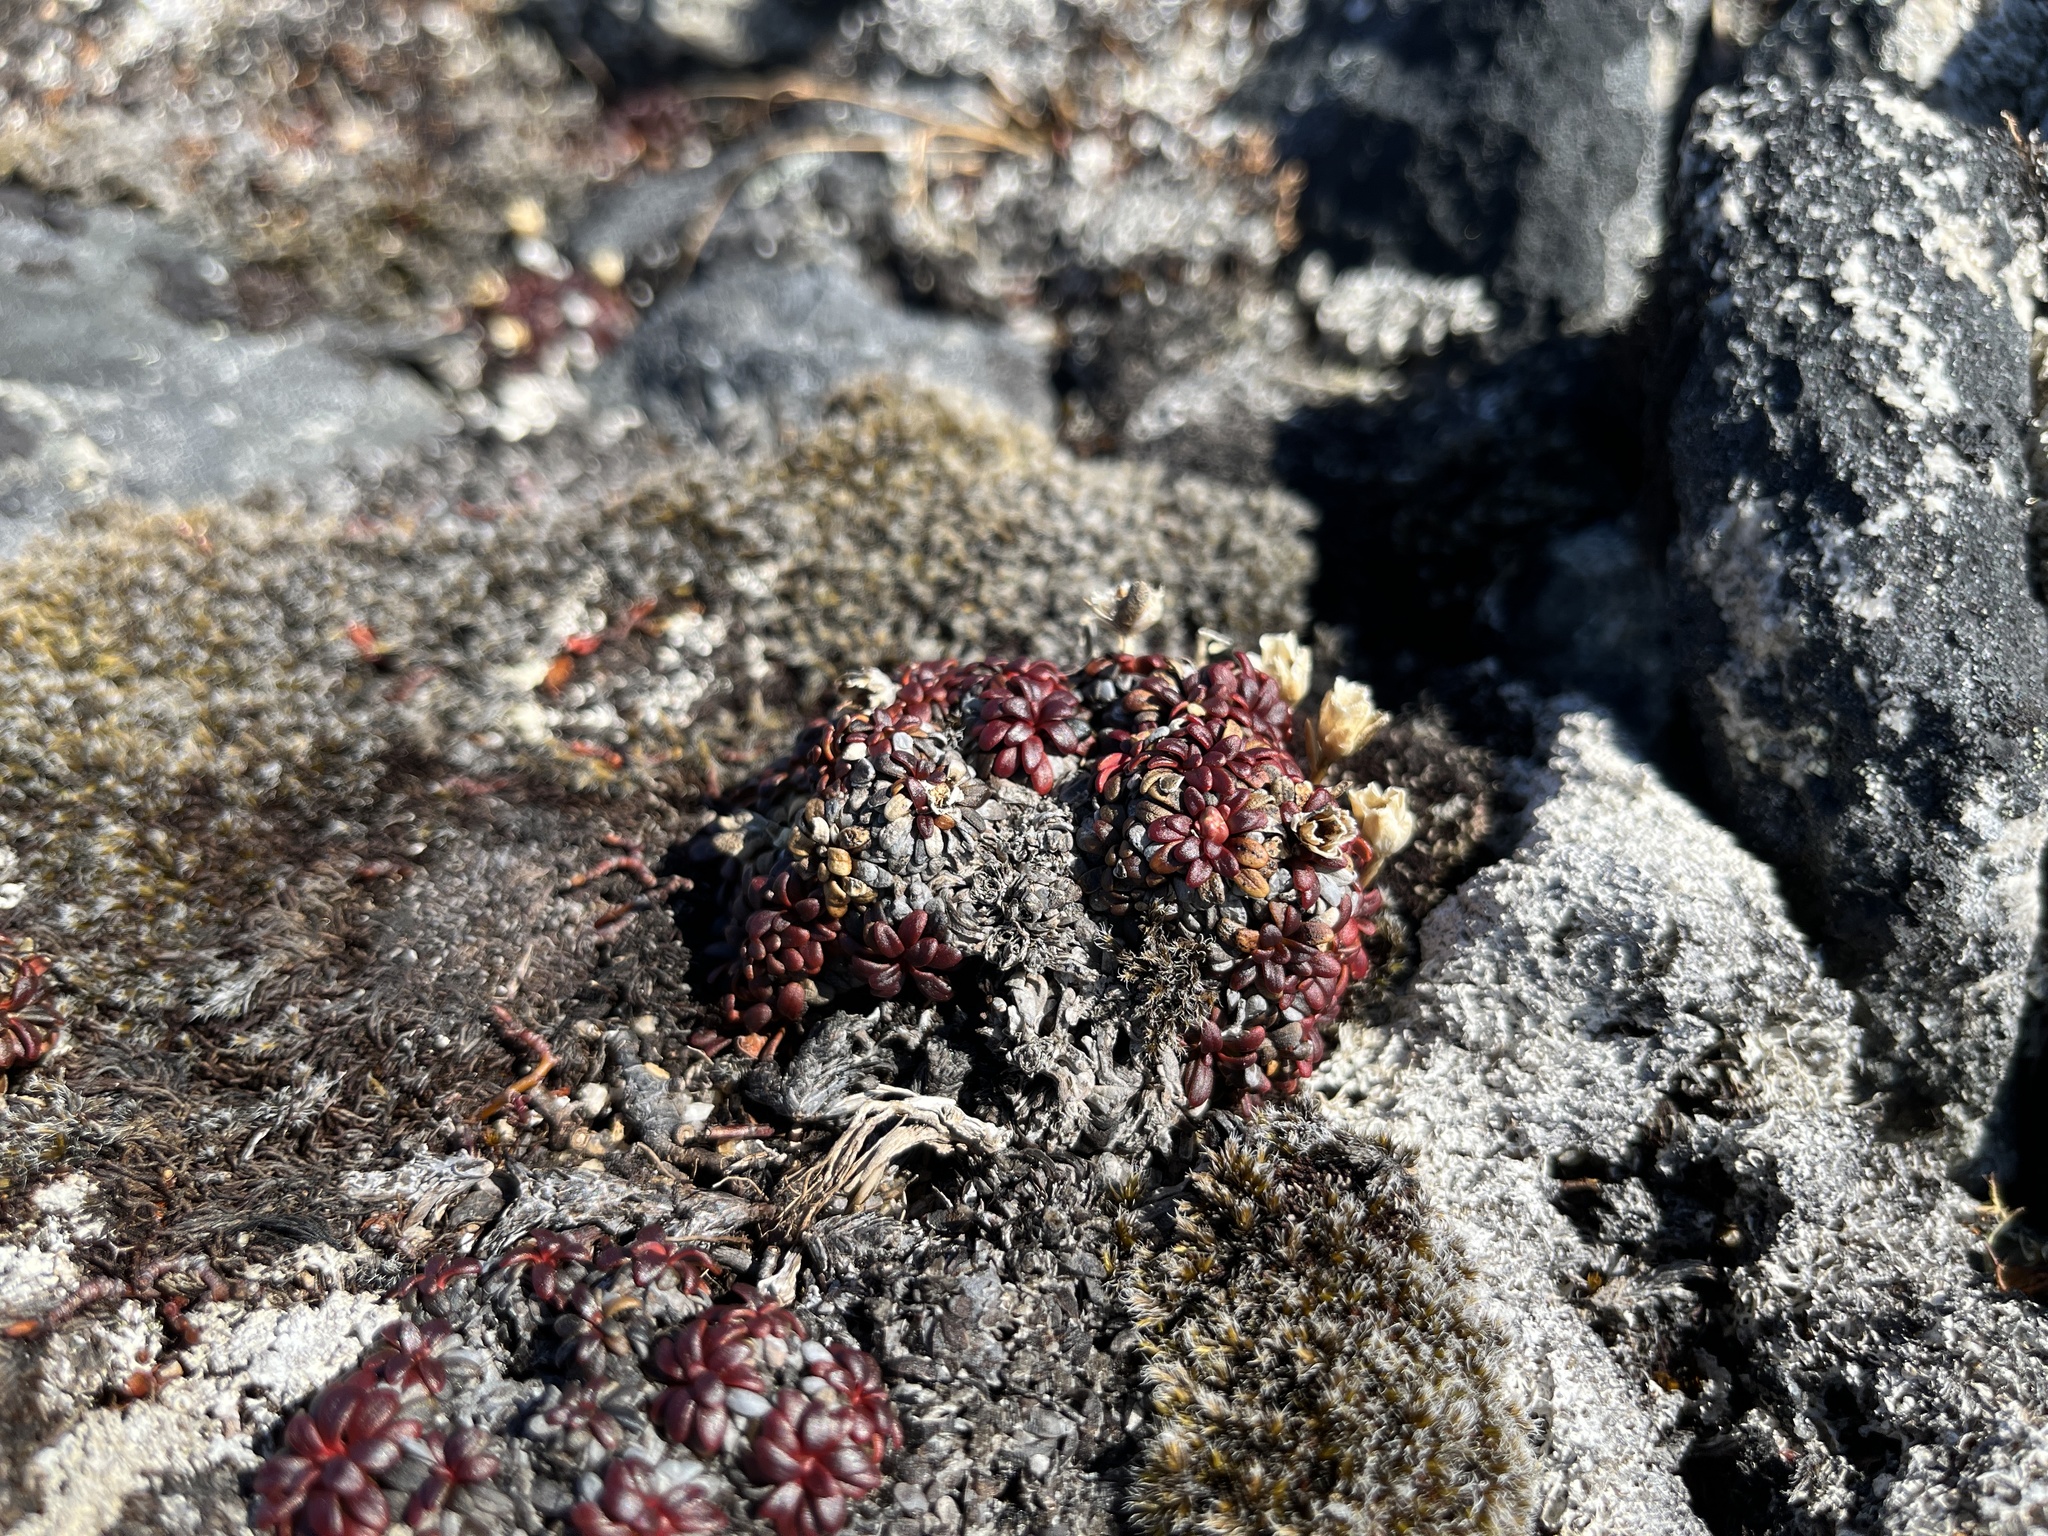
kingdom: Plantae
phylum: Tracheophyta
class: Magnoliopsida
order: Ericales
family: Diapensiaceae
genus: Diapensia
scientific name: Diapensia lapponica
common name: Diapensia
